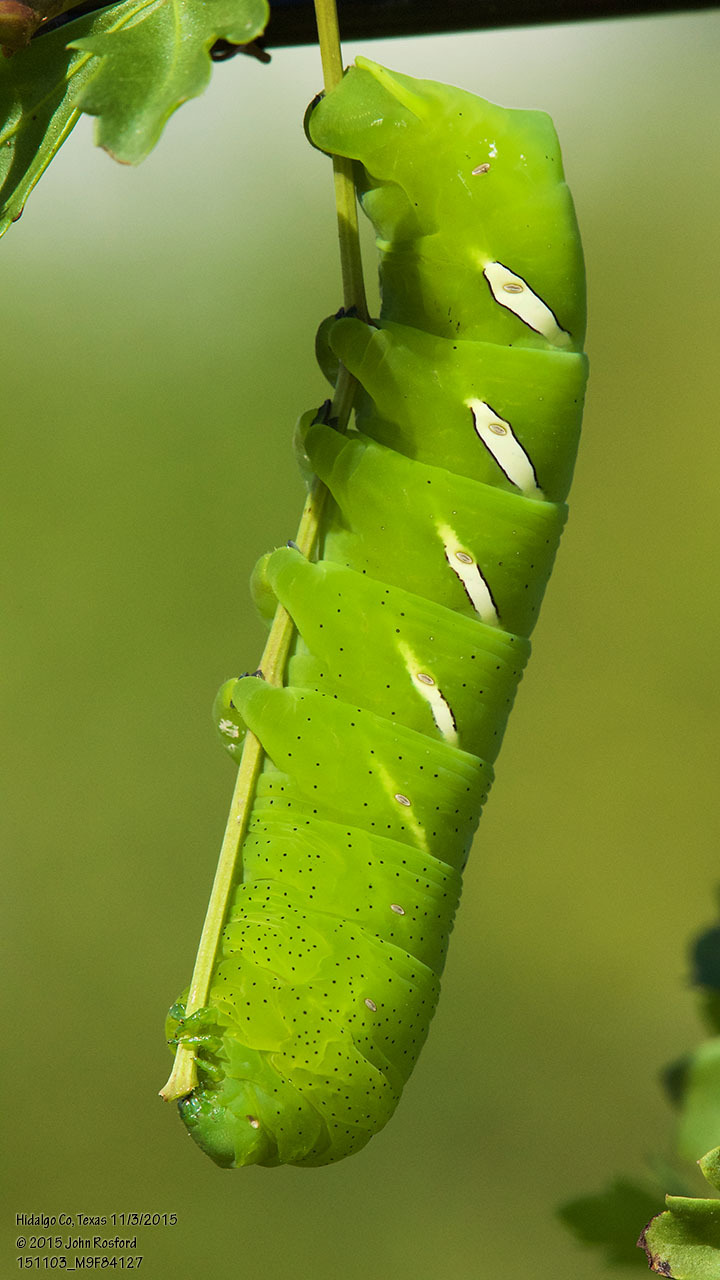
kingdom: Animalia
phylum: Arthropoda
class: Insecta
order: Lepidoptera
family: Sphingidae
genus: Eumorpha
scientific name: Eumorpha vitis
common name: Vine sphinx
